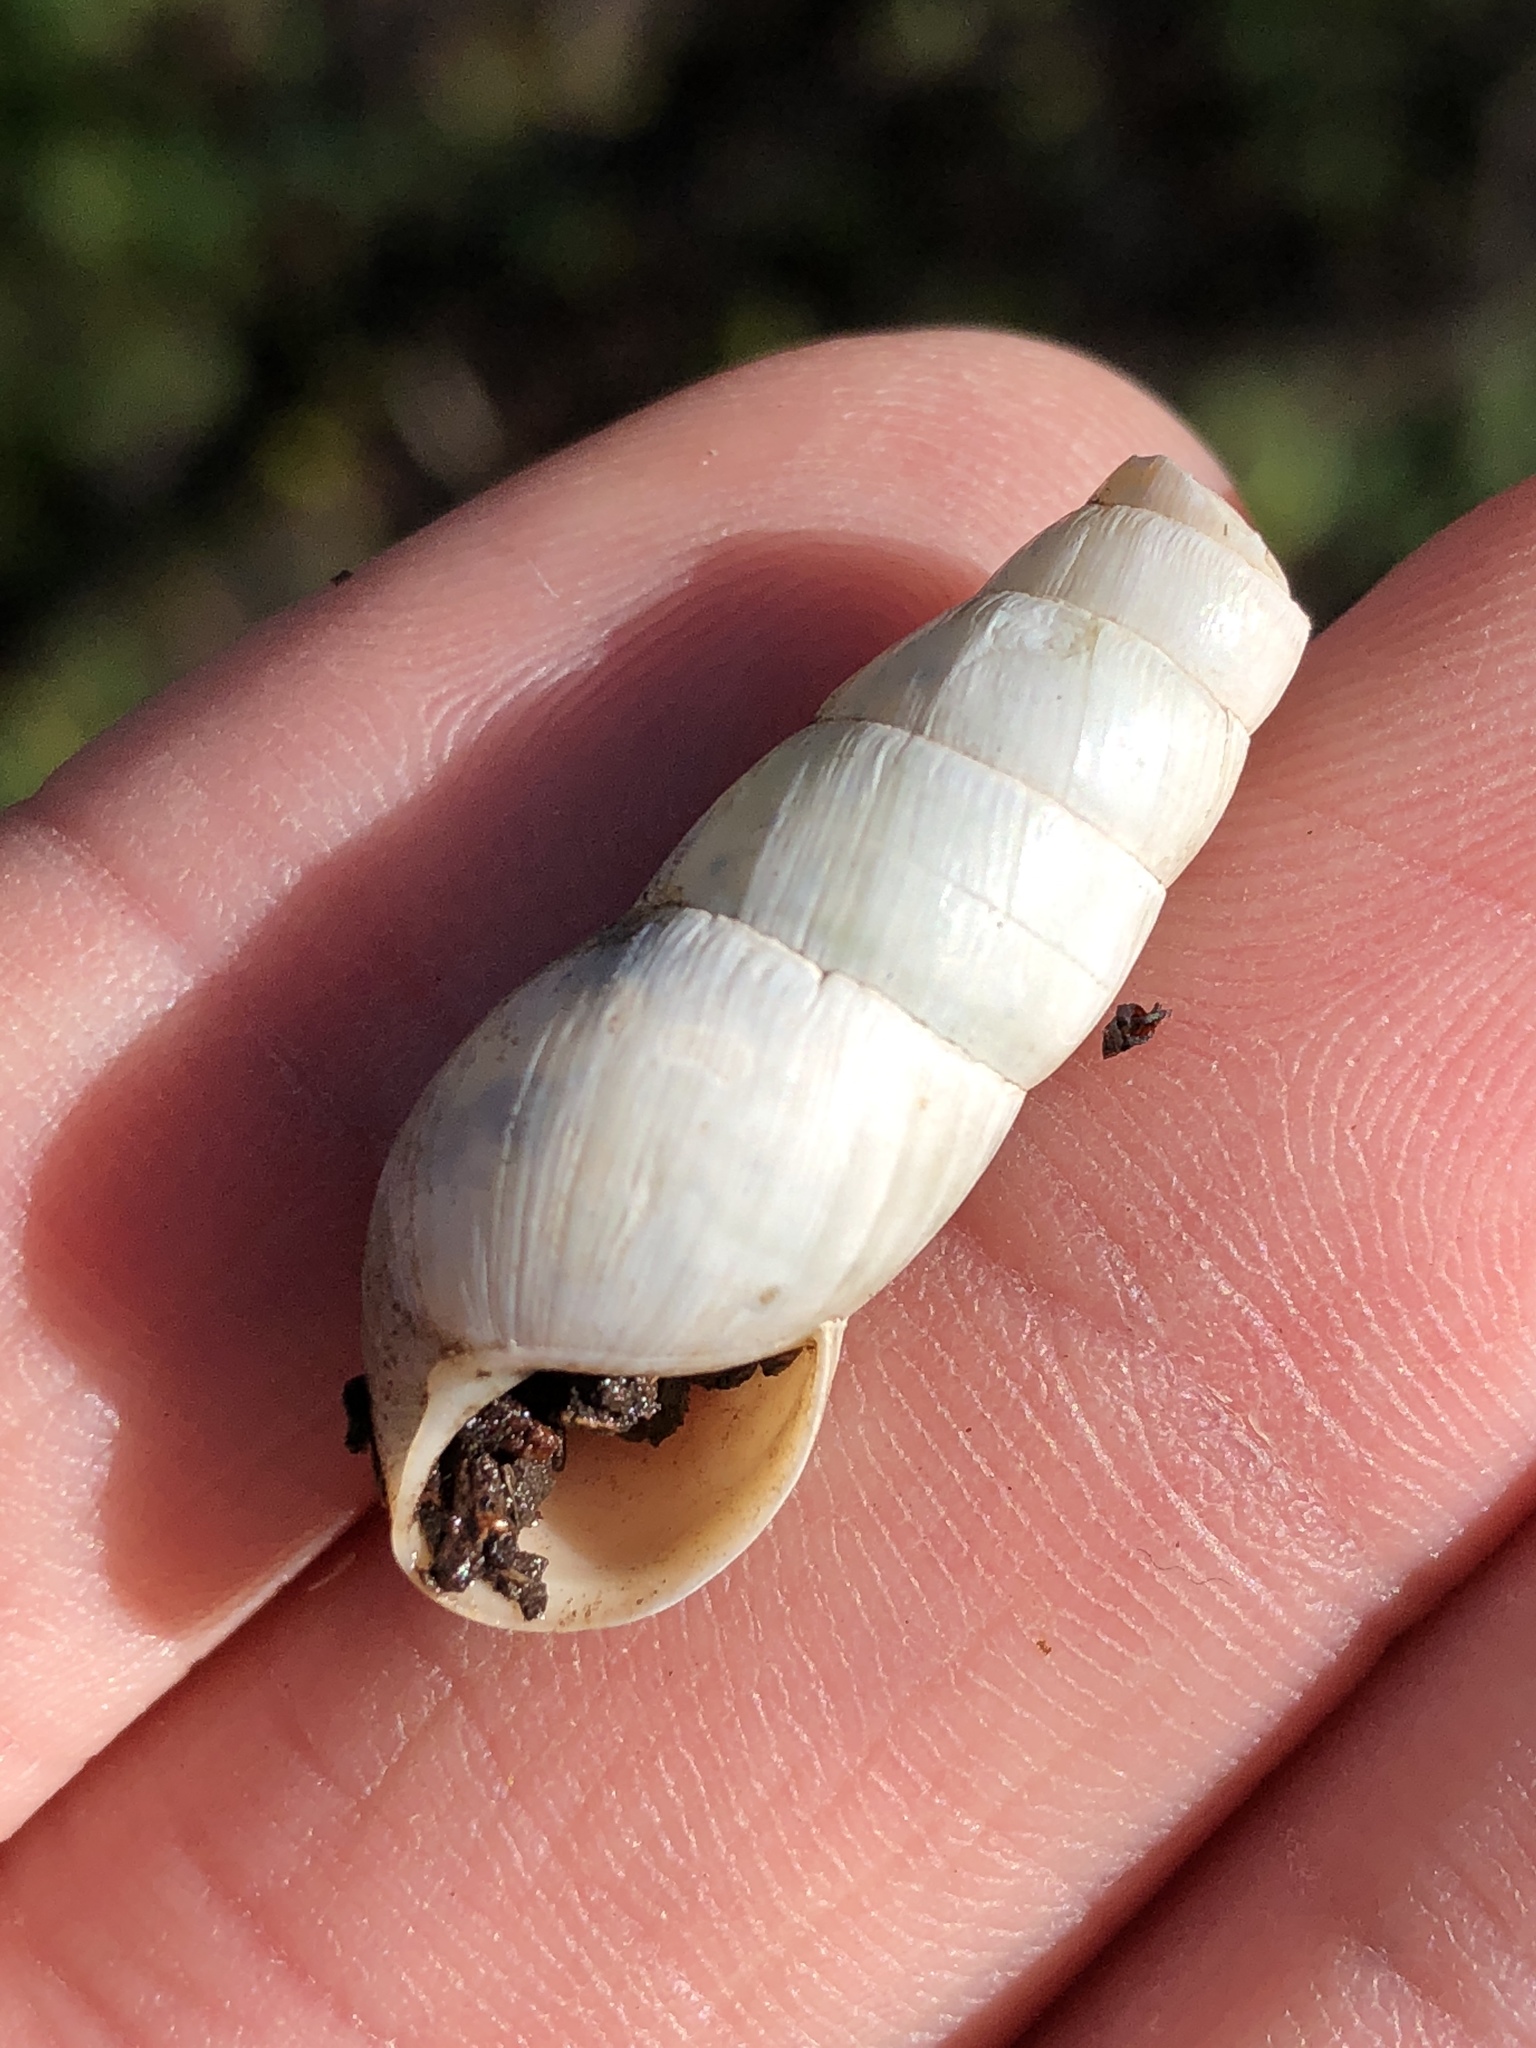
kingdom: Animalia
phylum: Mollusca
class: Gastropoda
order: Stylommatophora
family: Achatinidae
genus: Rumina
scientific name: Rumina decollata
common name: Decollate snail
